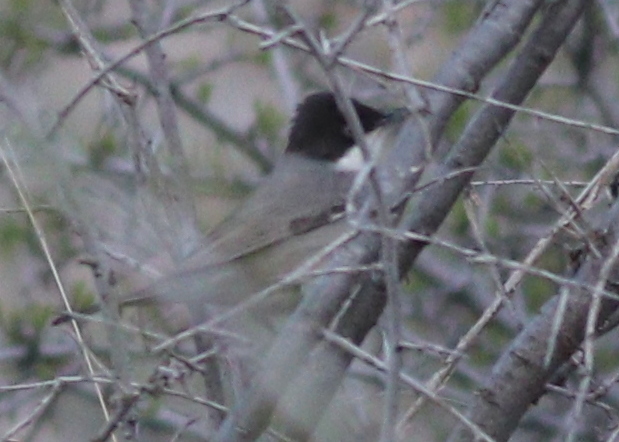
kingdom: Animalia
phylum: Chordata
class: Aves
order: Passeriformes
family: Sylviidae
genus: Sylvia
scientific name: Sylvia crassirostris
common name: Eastern orphean warbler
